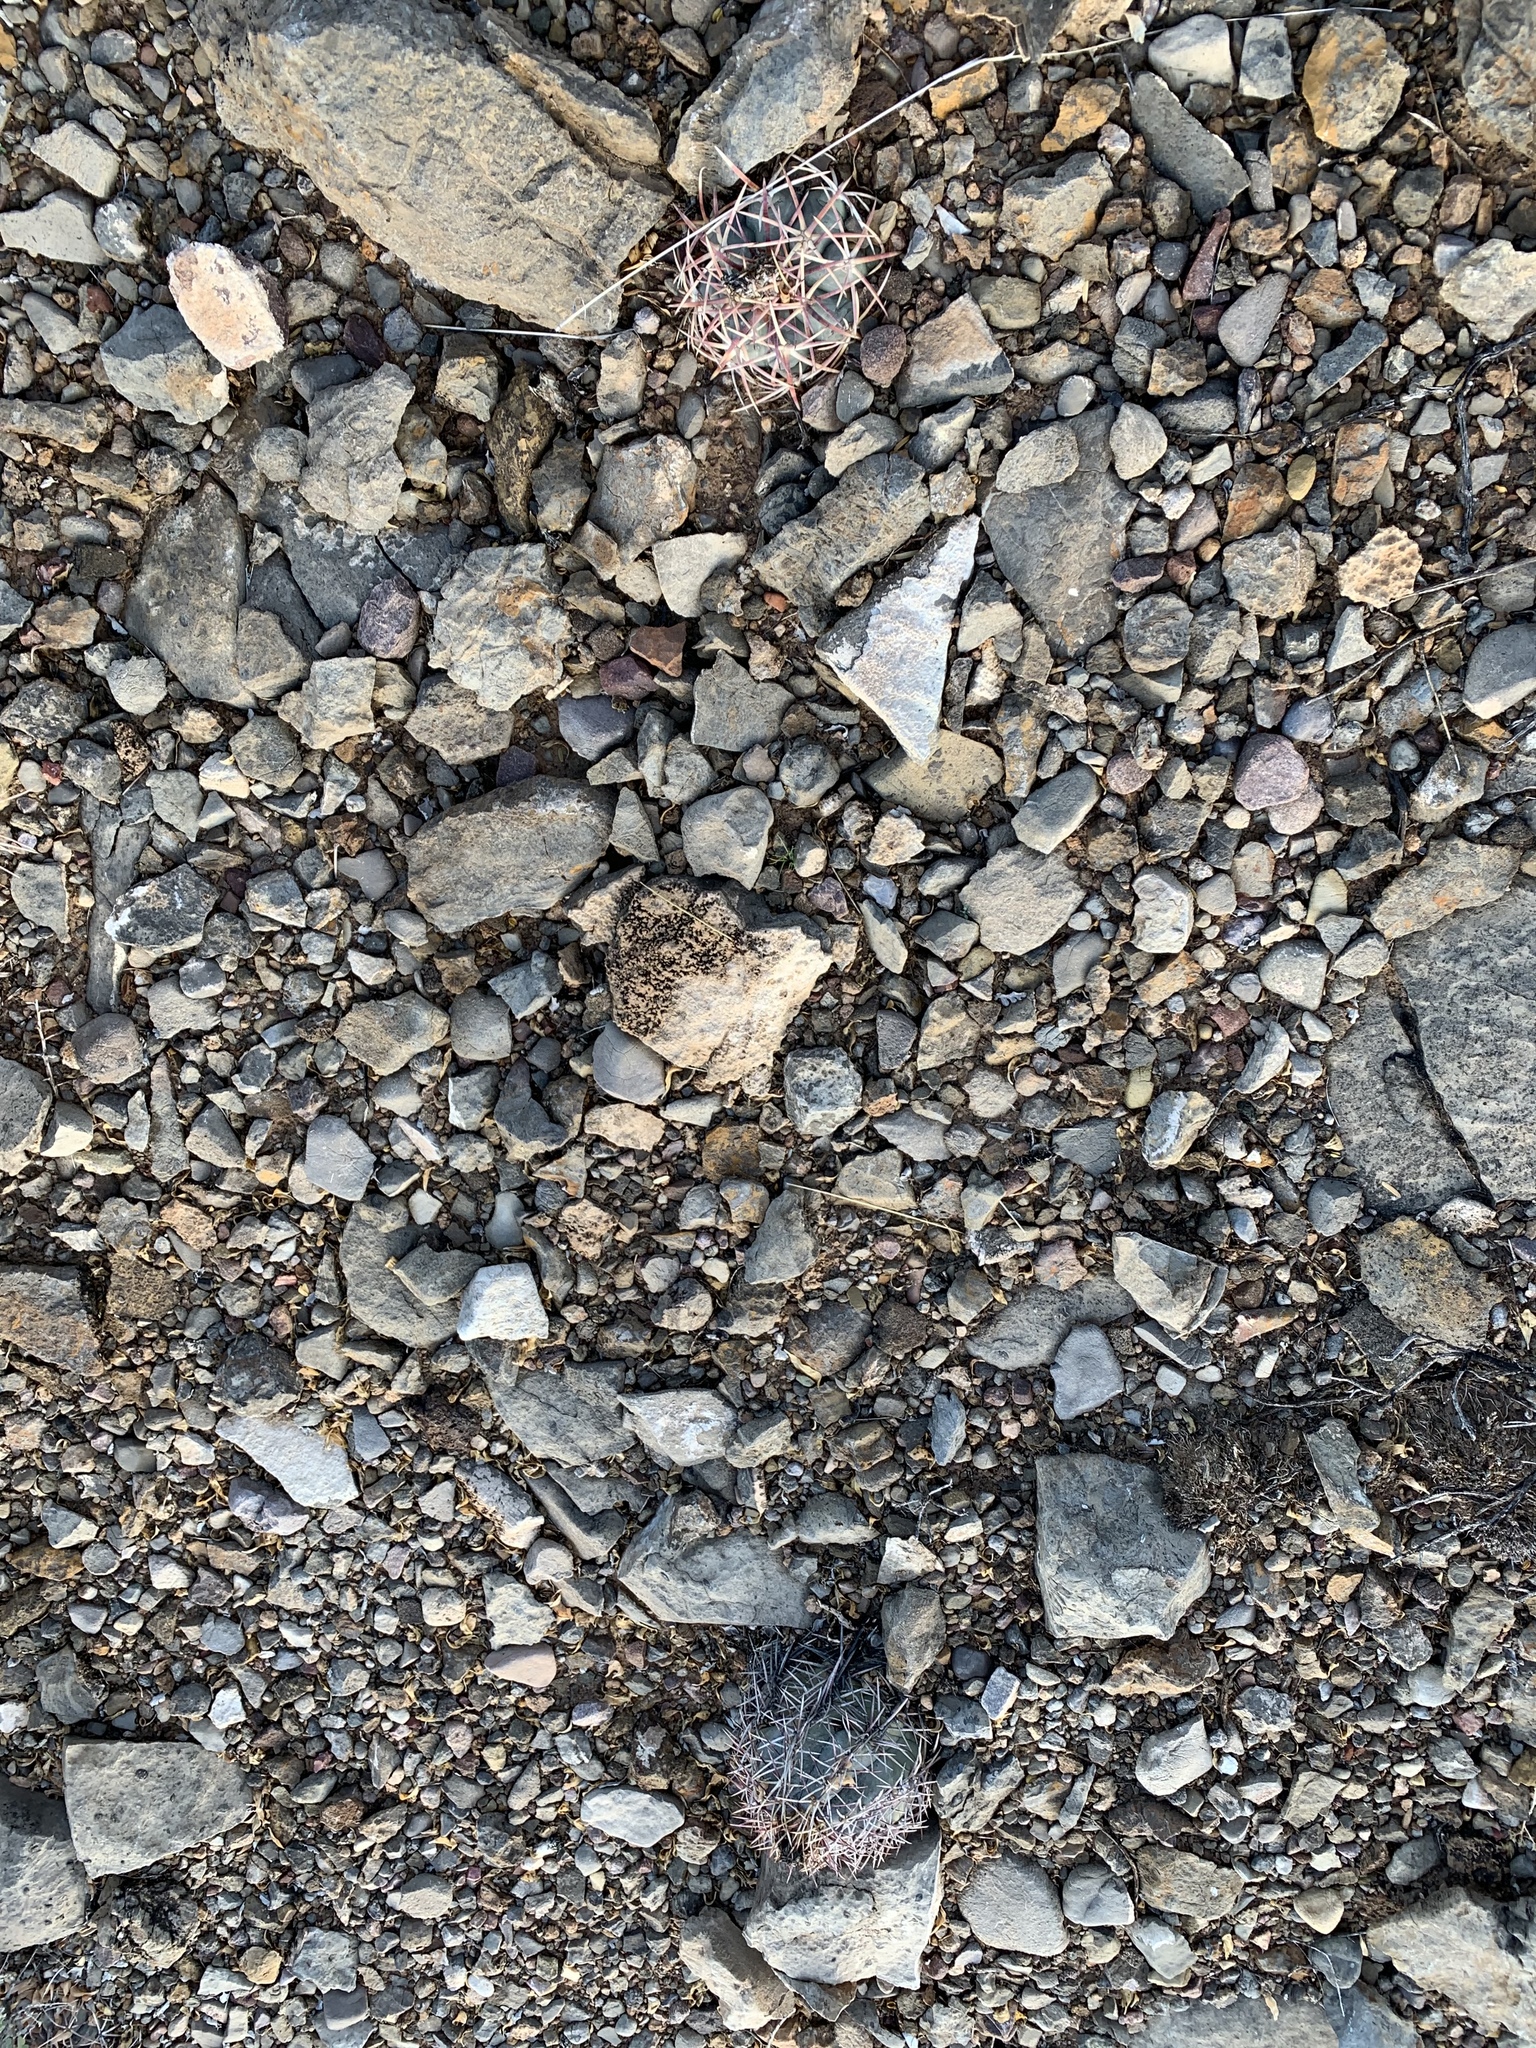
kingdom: Plantae
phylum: Tracheophyta
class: Magnoliopsida
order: Caryophyllales
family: Cactaceae
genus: Echinocactus
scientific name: Echinocactus horizonthalonius
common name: Devilshead
